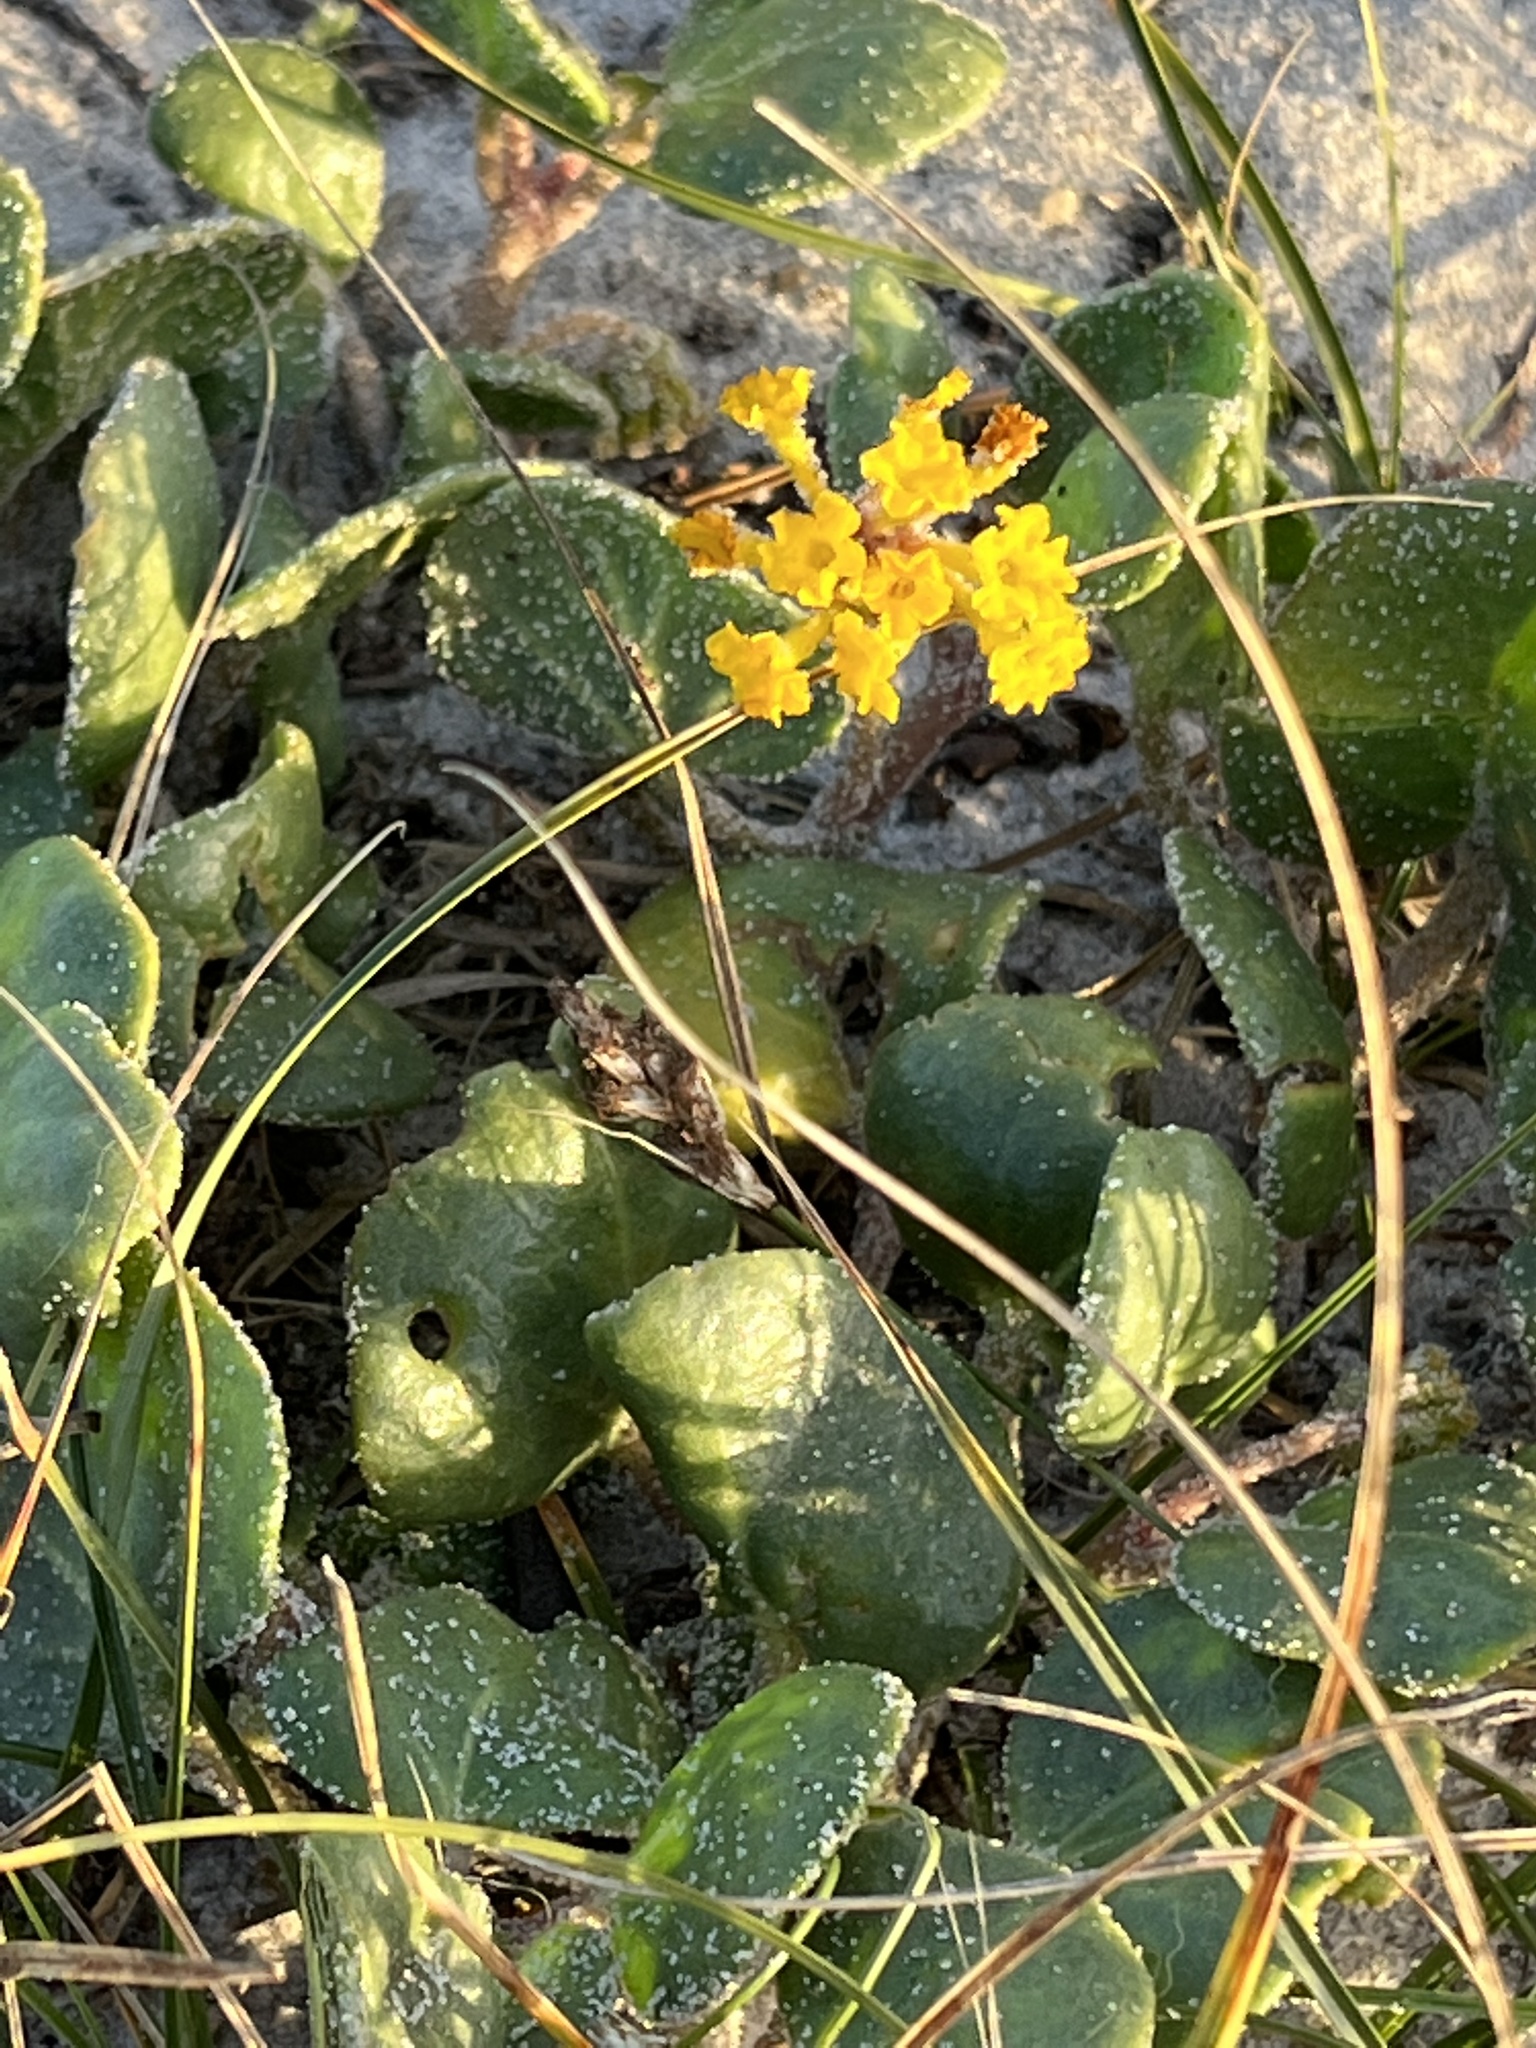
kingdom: Plantae
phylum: Tracheophyta
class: Magnoliopsida
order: Caryophyllales
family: Nyctaginaceae
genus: Abronia
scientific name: Abronia latifolia
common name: Yellow sand-verbena
